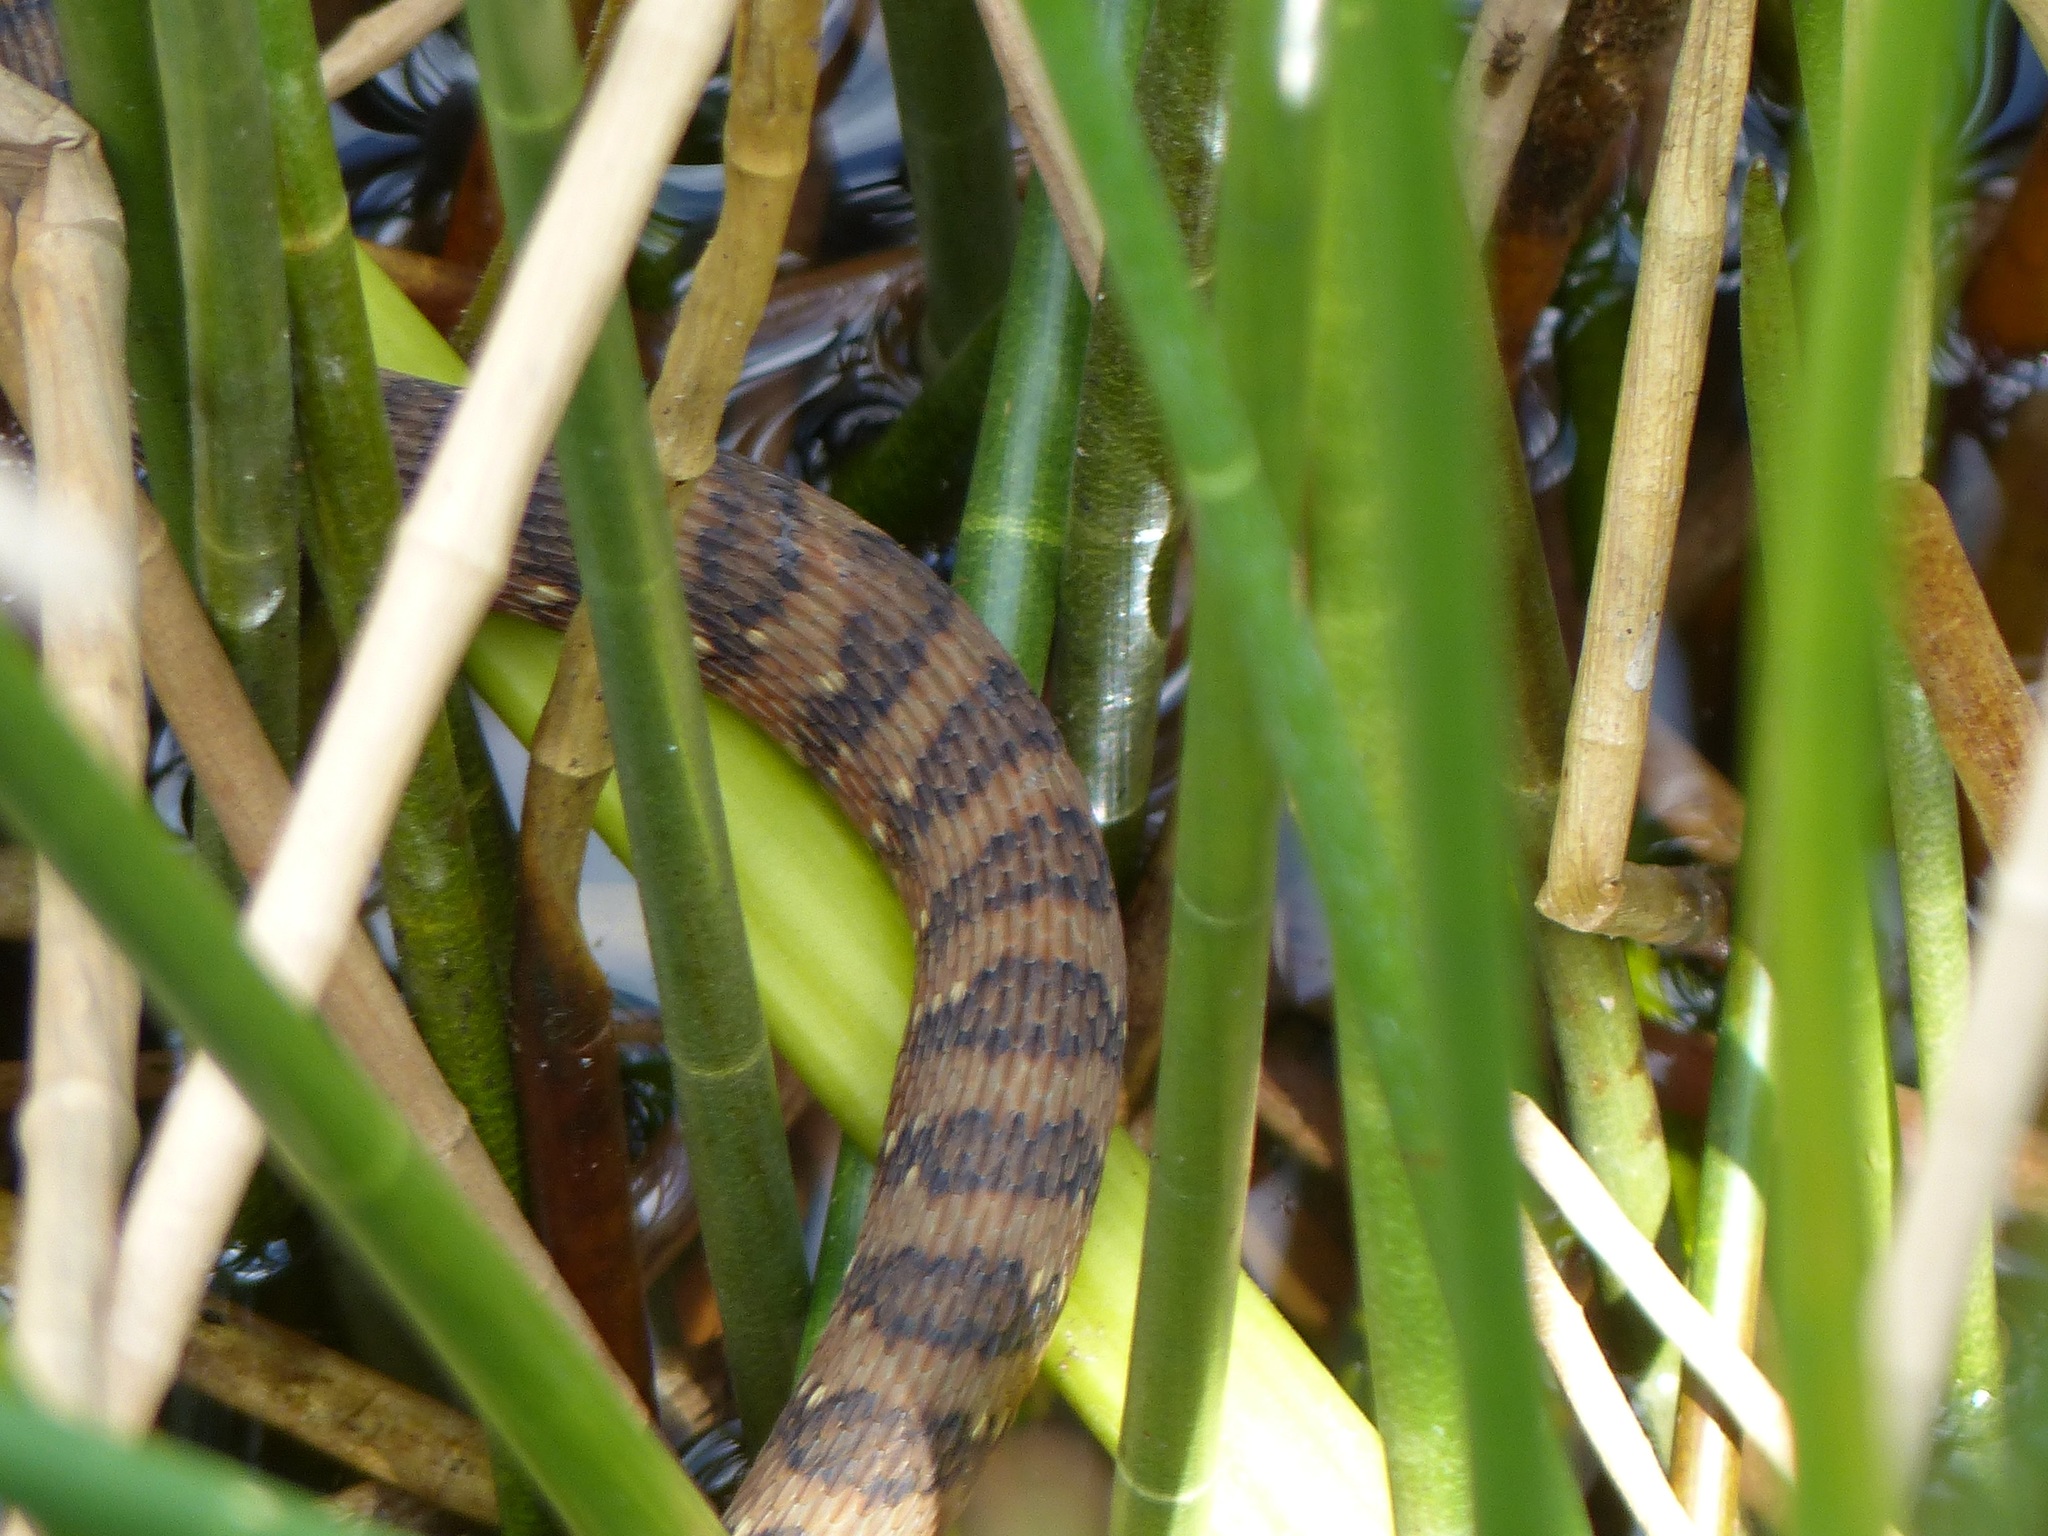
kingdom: Animalia
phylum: Chordata
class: Squamata
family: Colubridae
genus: Nerodia
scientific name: Nerodia fasciata
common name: Southern water snake
